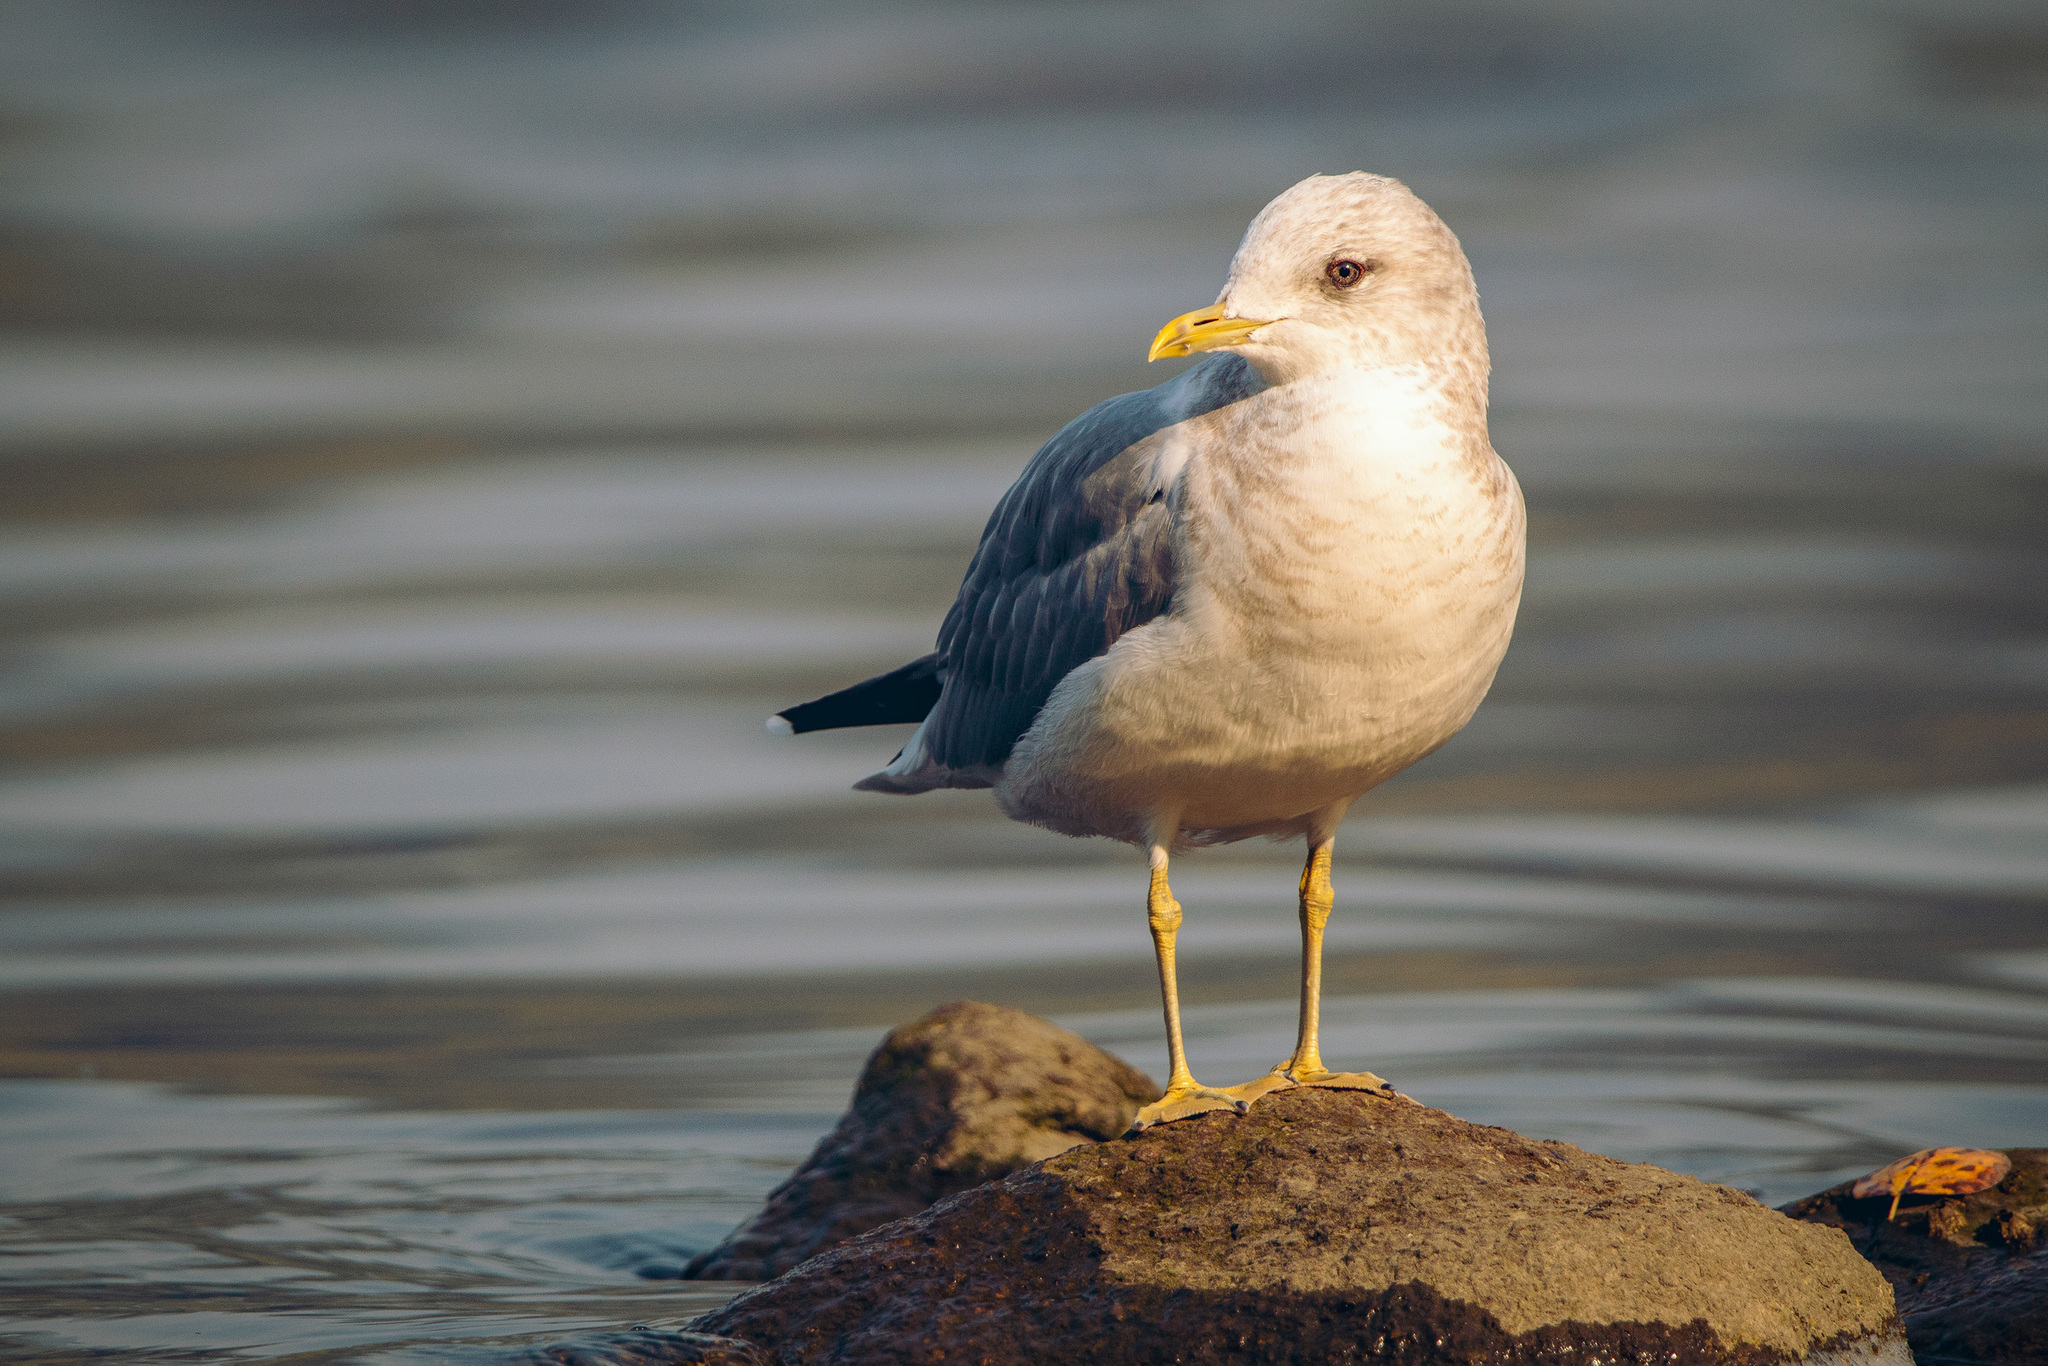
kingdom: Animalia
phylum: Chordata
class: Aves
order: Charadriiformes
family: Laridae
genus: Larus
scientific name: Larus brachyrhynchus
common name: Short-billed gull
